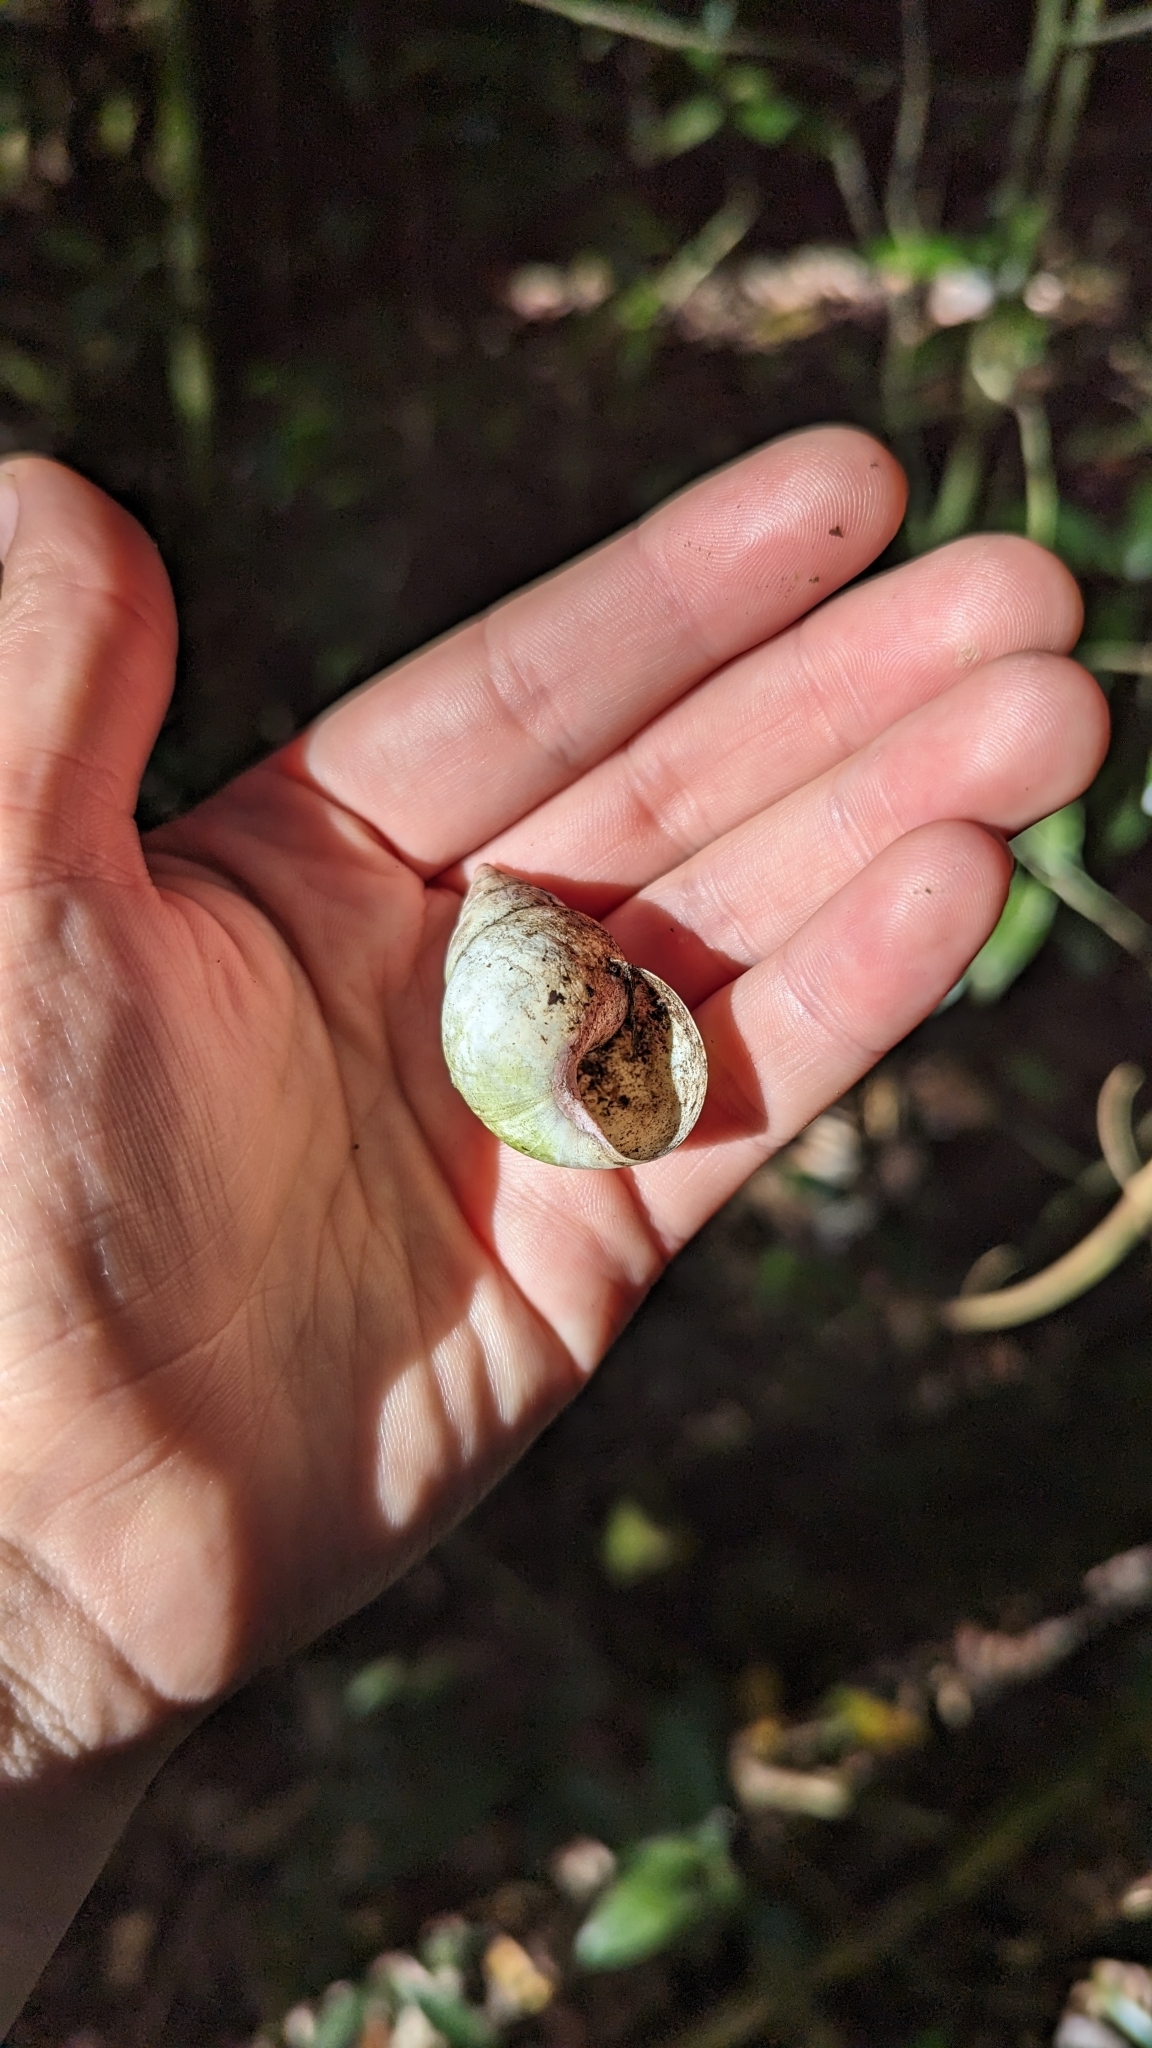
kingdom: Animalia
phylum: Mollusca
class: Gastropoda
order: Stylommatophora
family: Orthalicidae
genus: Liguus
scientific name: Liguus fasciatus
